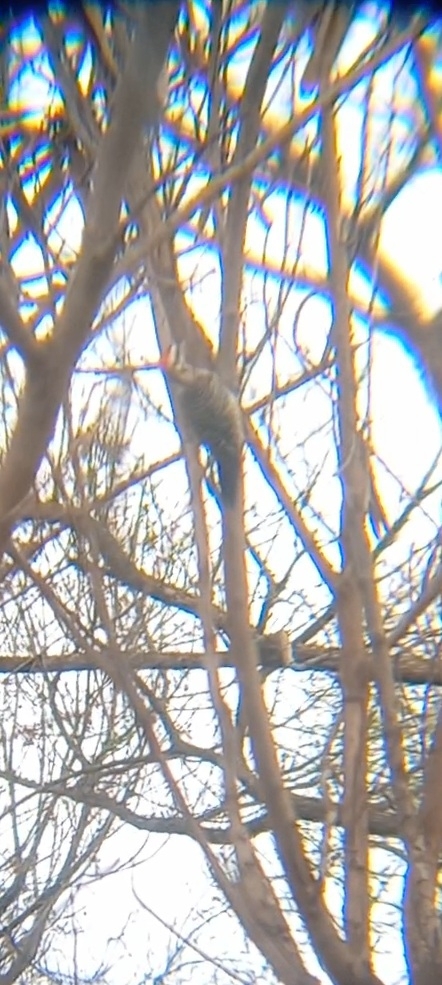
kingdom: Animalia
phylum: Chordata
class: Aves
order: Piciformes
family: Picidae
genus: Dryobates
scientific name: Dryobates scalaris
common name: Ladder-backed woodpecker
